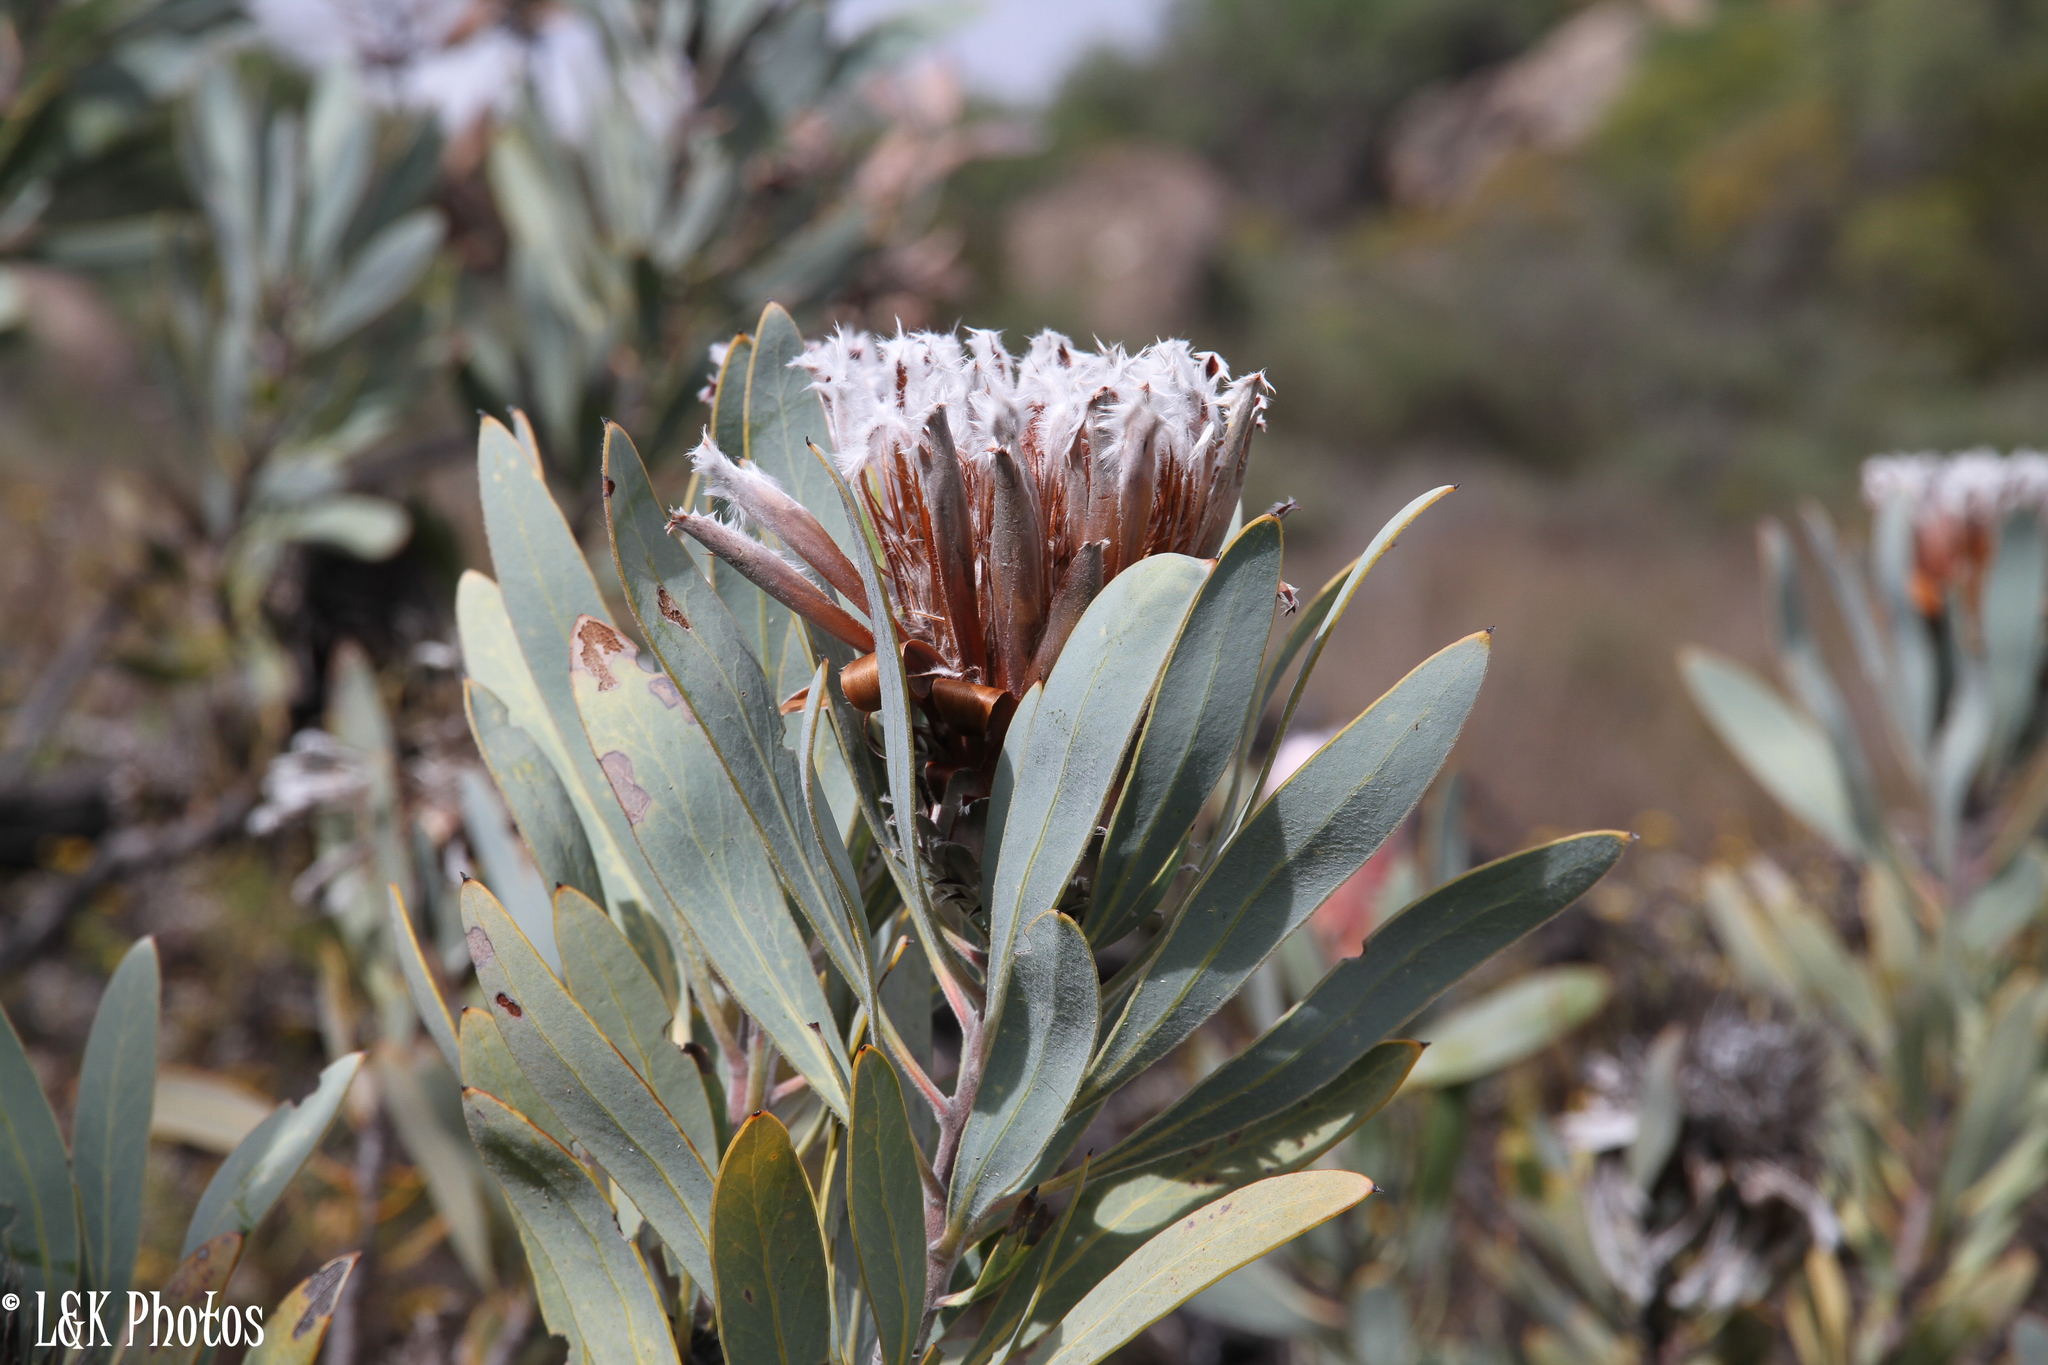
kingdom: Plantae
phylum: Tracheophyta
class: Magnoliopsida
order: Proteales
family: Proteaceae
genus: Protea
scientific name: Protea laurifolia
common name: Grey-leaf sugarbsh
